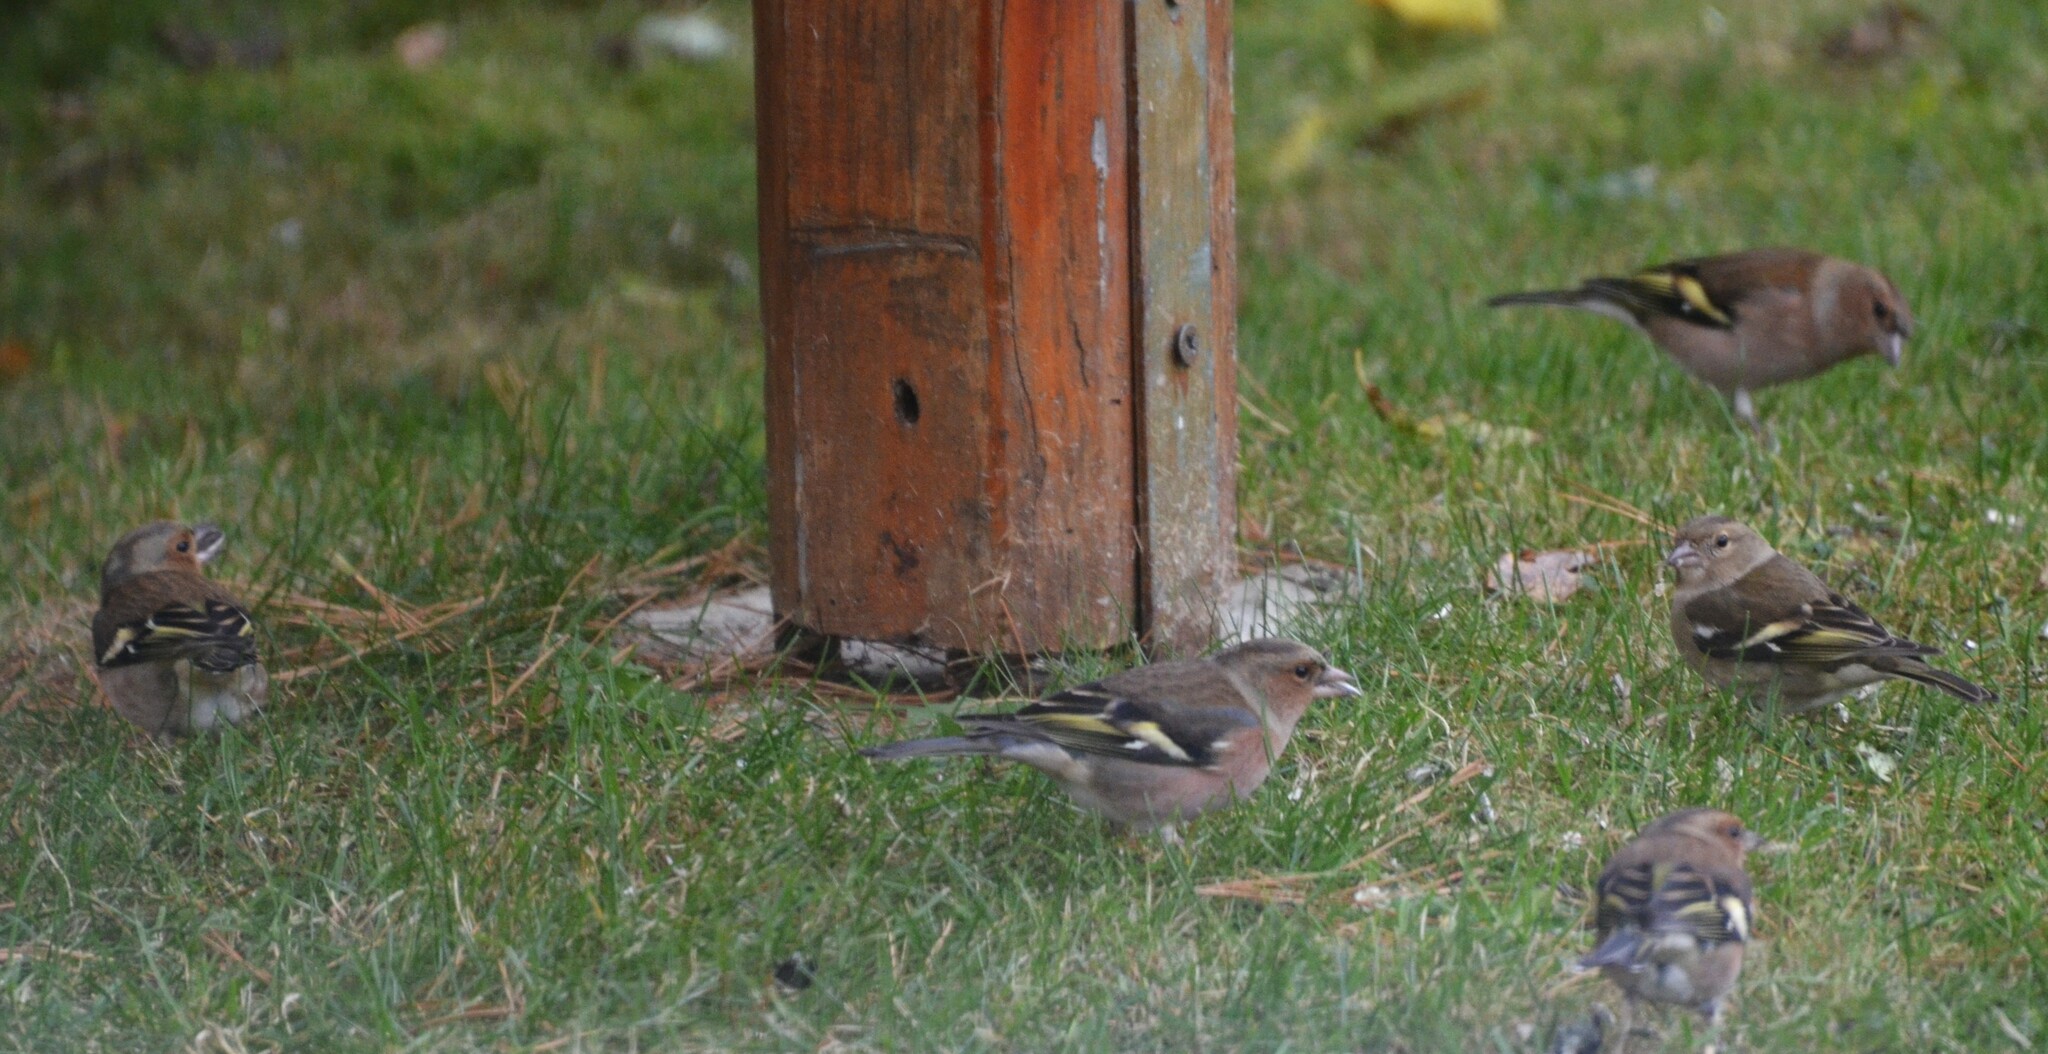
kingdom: Animalia
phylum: Chordata
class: Aves
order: Passeriformes
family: Fringillidae
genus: Fringilla
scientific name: Fringilla coelebs
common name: Common chaffinch
